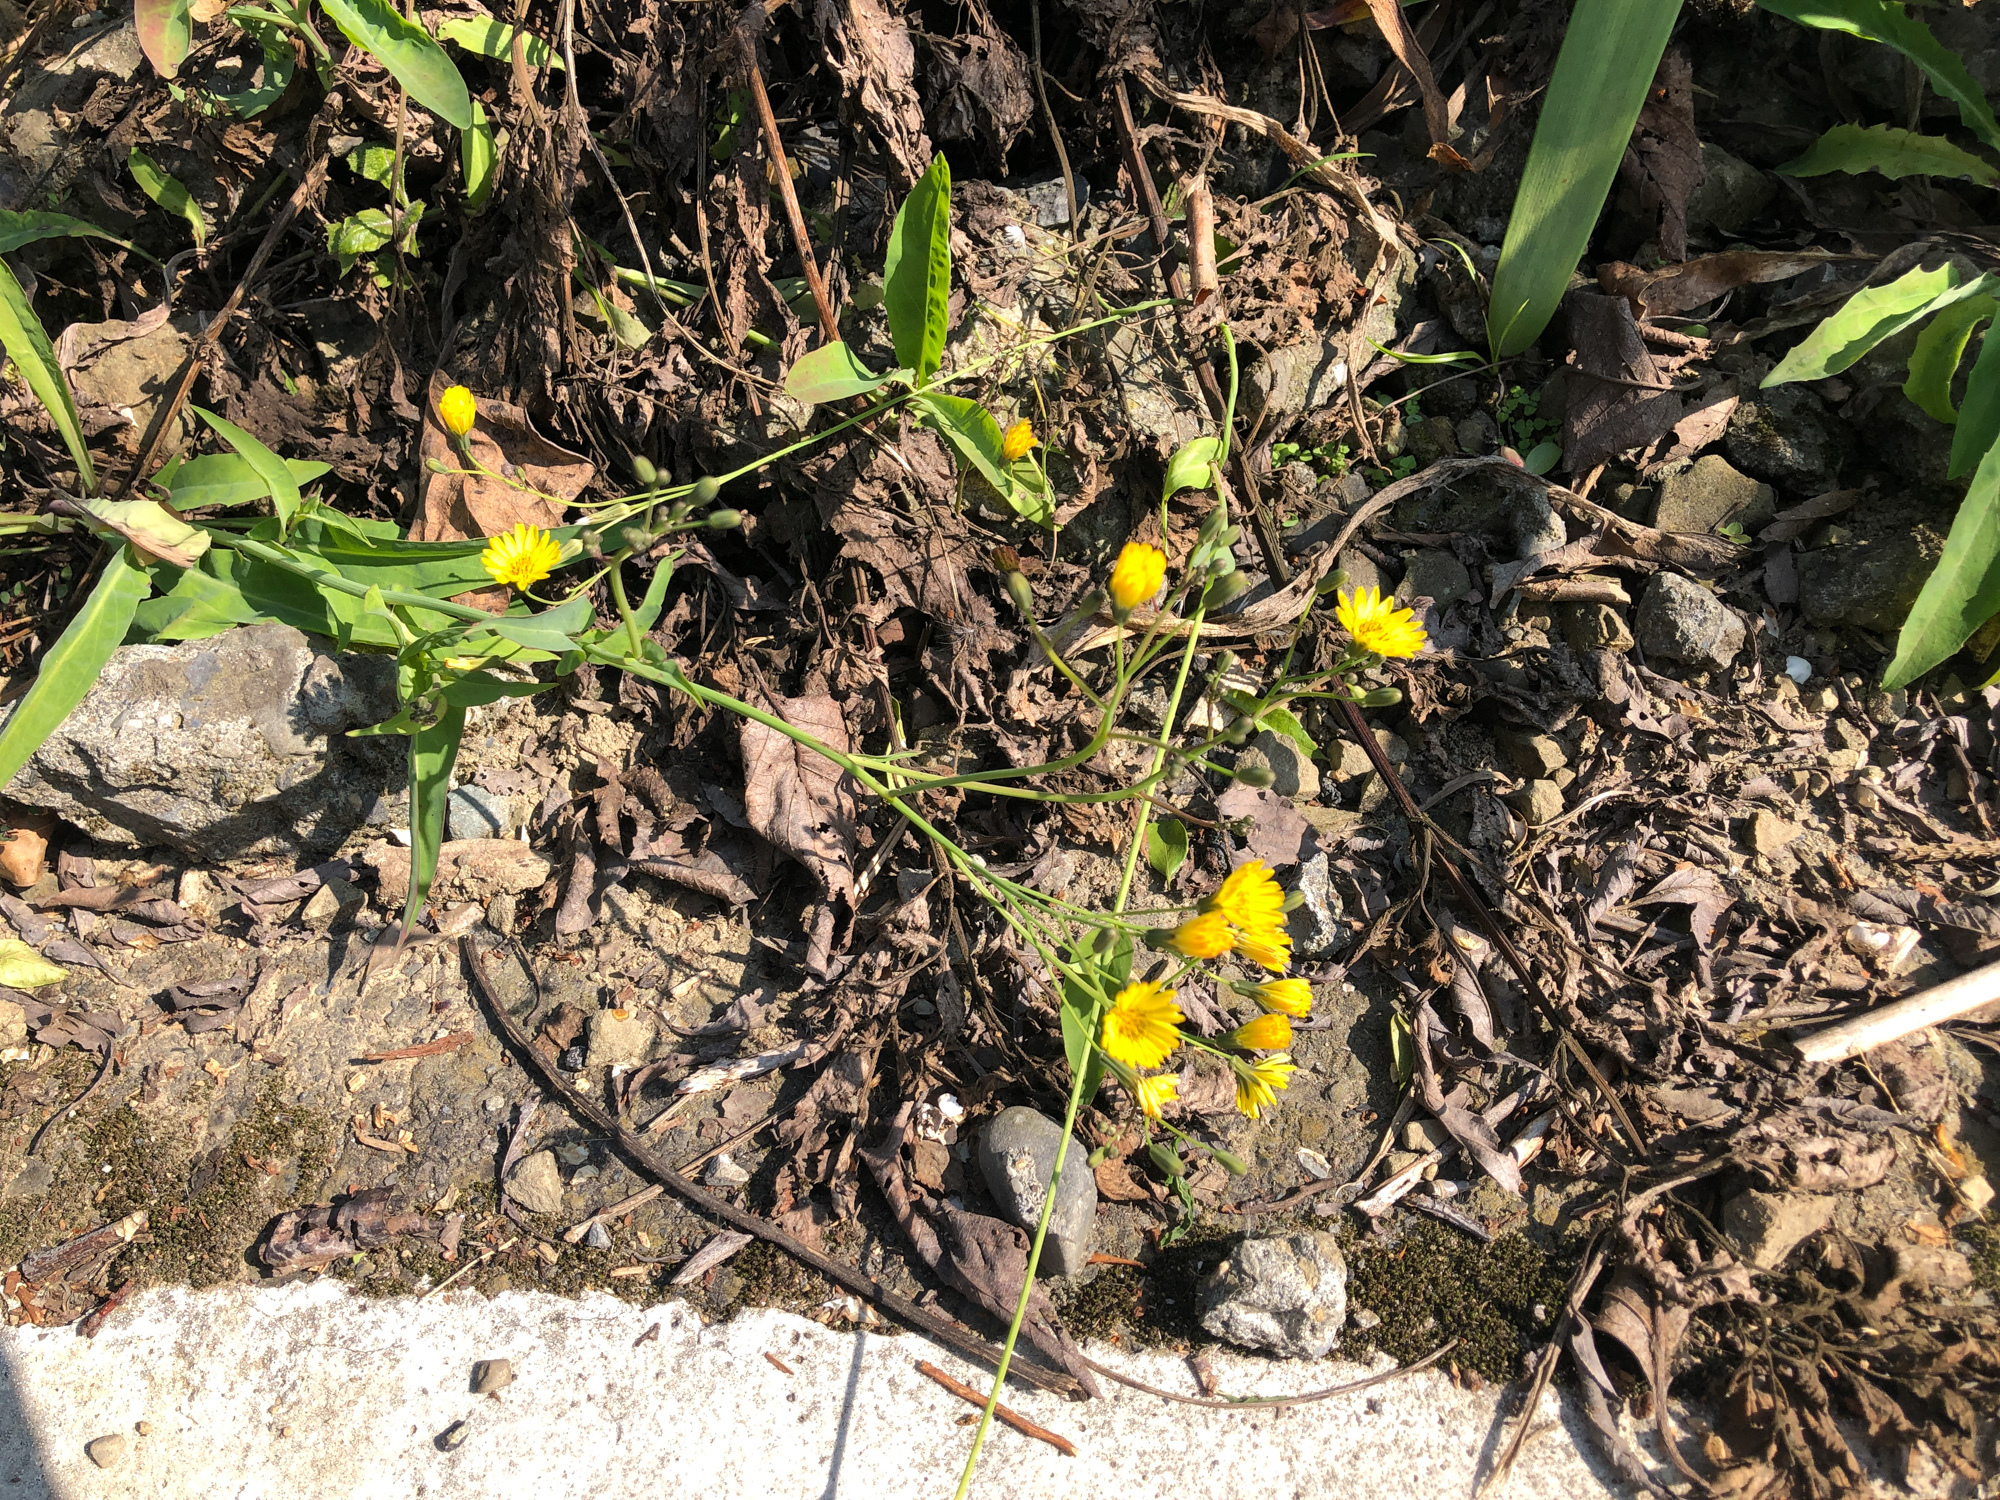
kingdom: Plantae
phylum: Tracheophyta
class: Magnoliopsida
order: Asterales
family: Asteraceae
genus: Ixeris
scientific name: Ixeris chinensis
